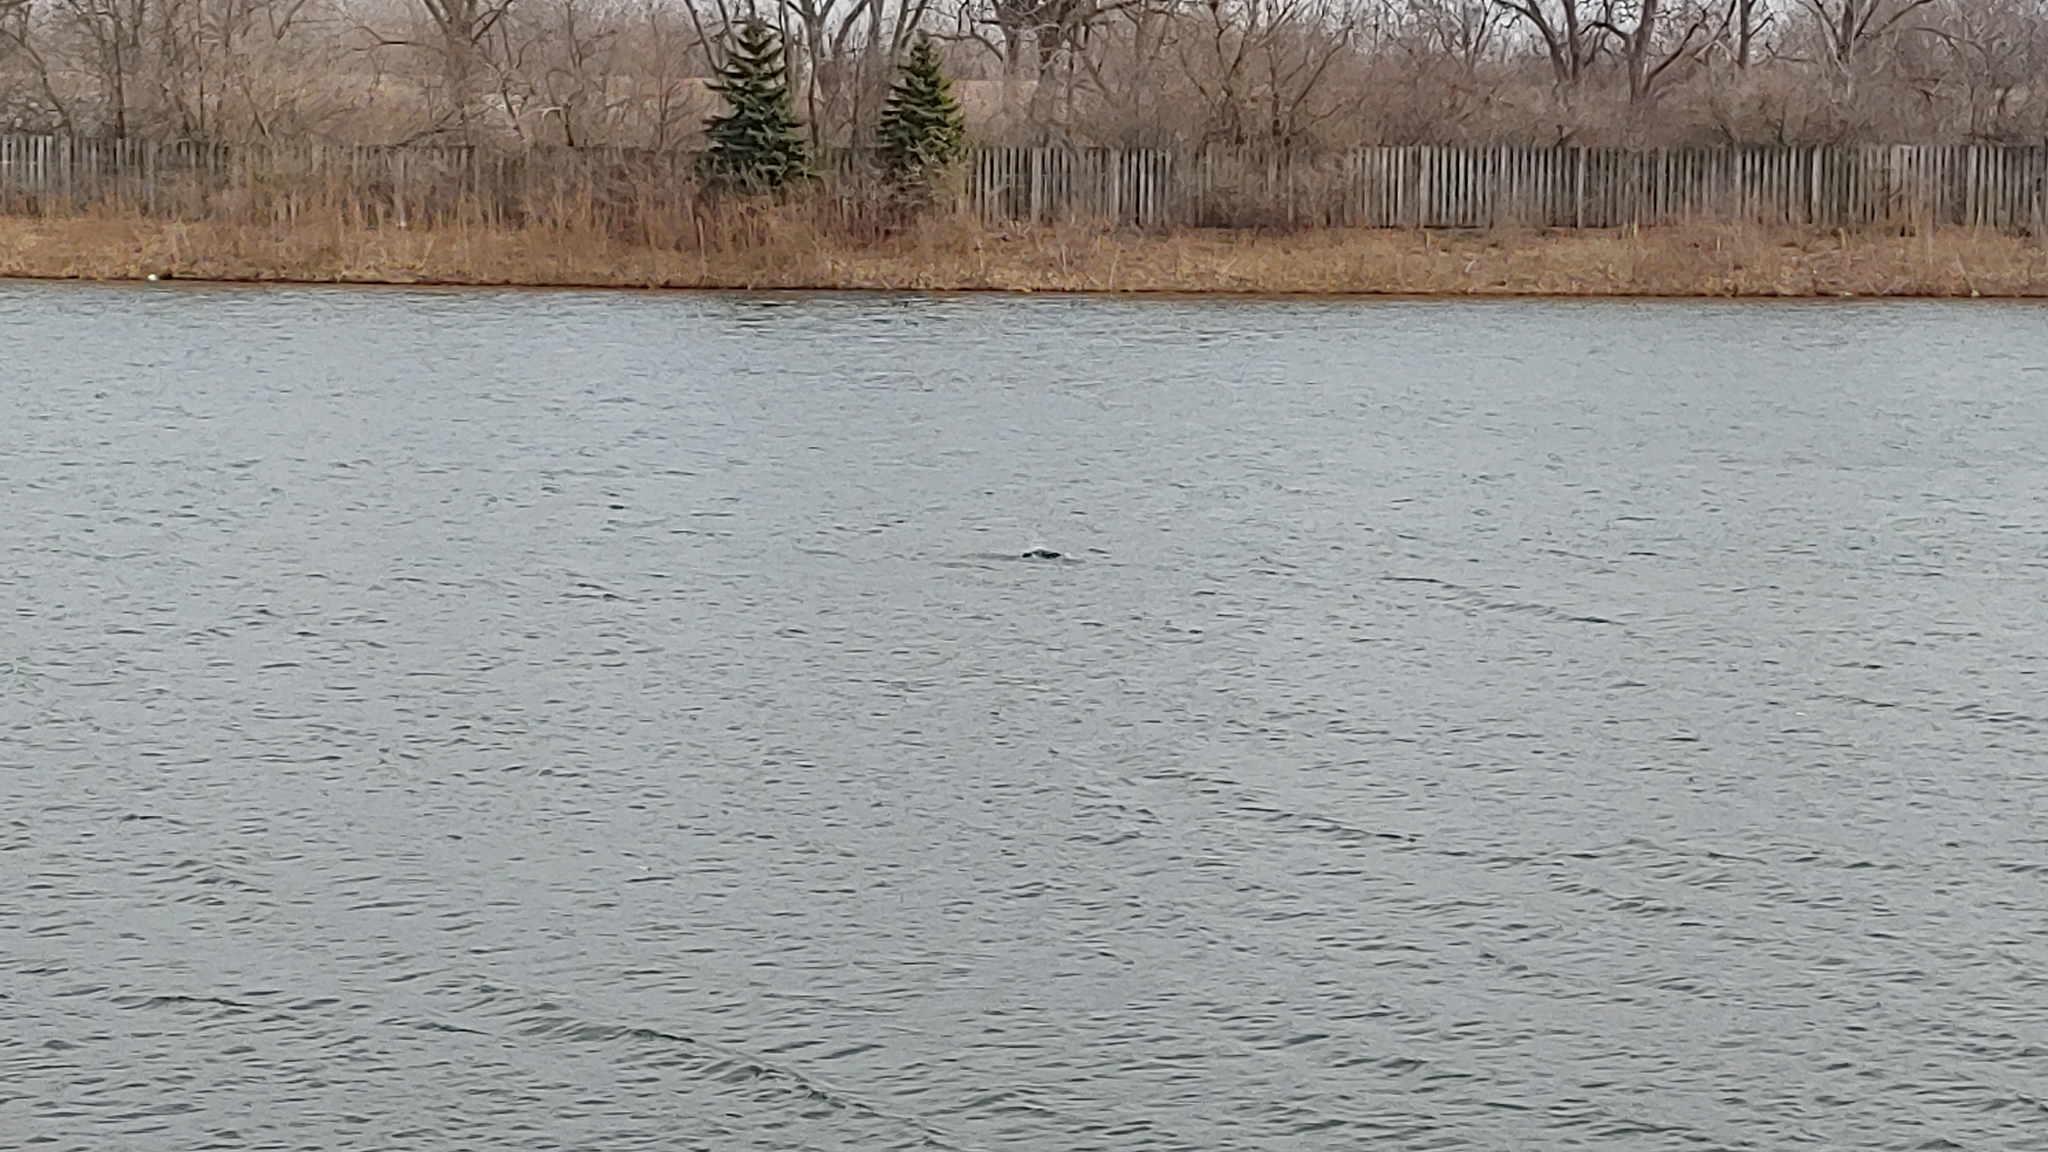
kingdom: Animalia
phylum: Chordata
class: Aves
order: Suliformes
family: Phalacrocoracidae
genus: Phalacrocorax
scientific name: Phalacrocorax auritus
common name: Double-crested cormorant
